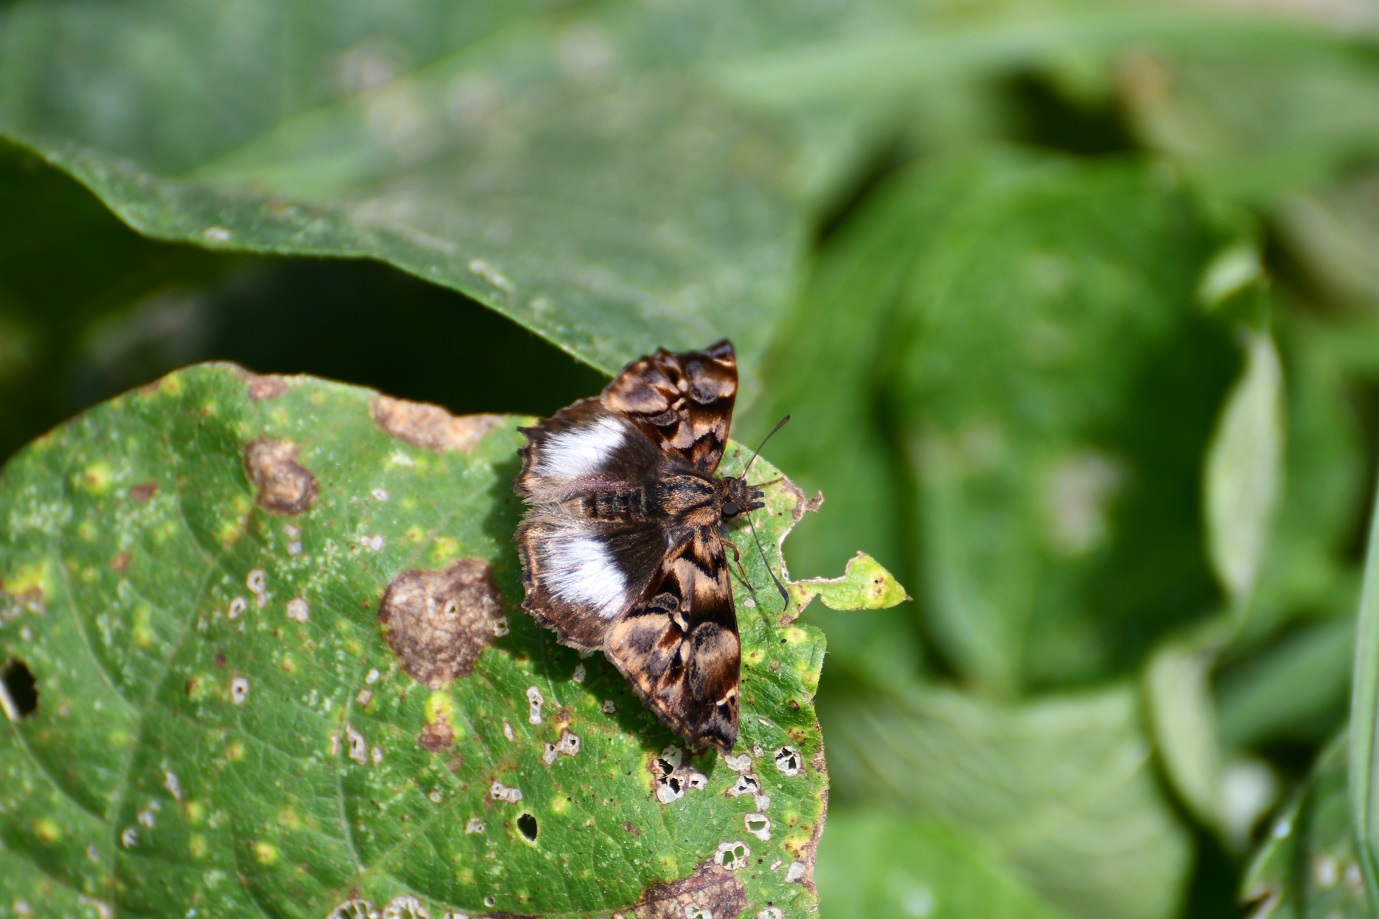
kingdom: Animalia
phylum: Arthropoda
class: Insecta
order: Lepidoptera
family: Hesperiidae
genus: Noctuana
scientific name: Noctuana lactifera
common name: Cryptic skipper
